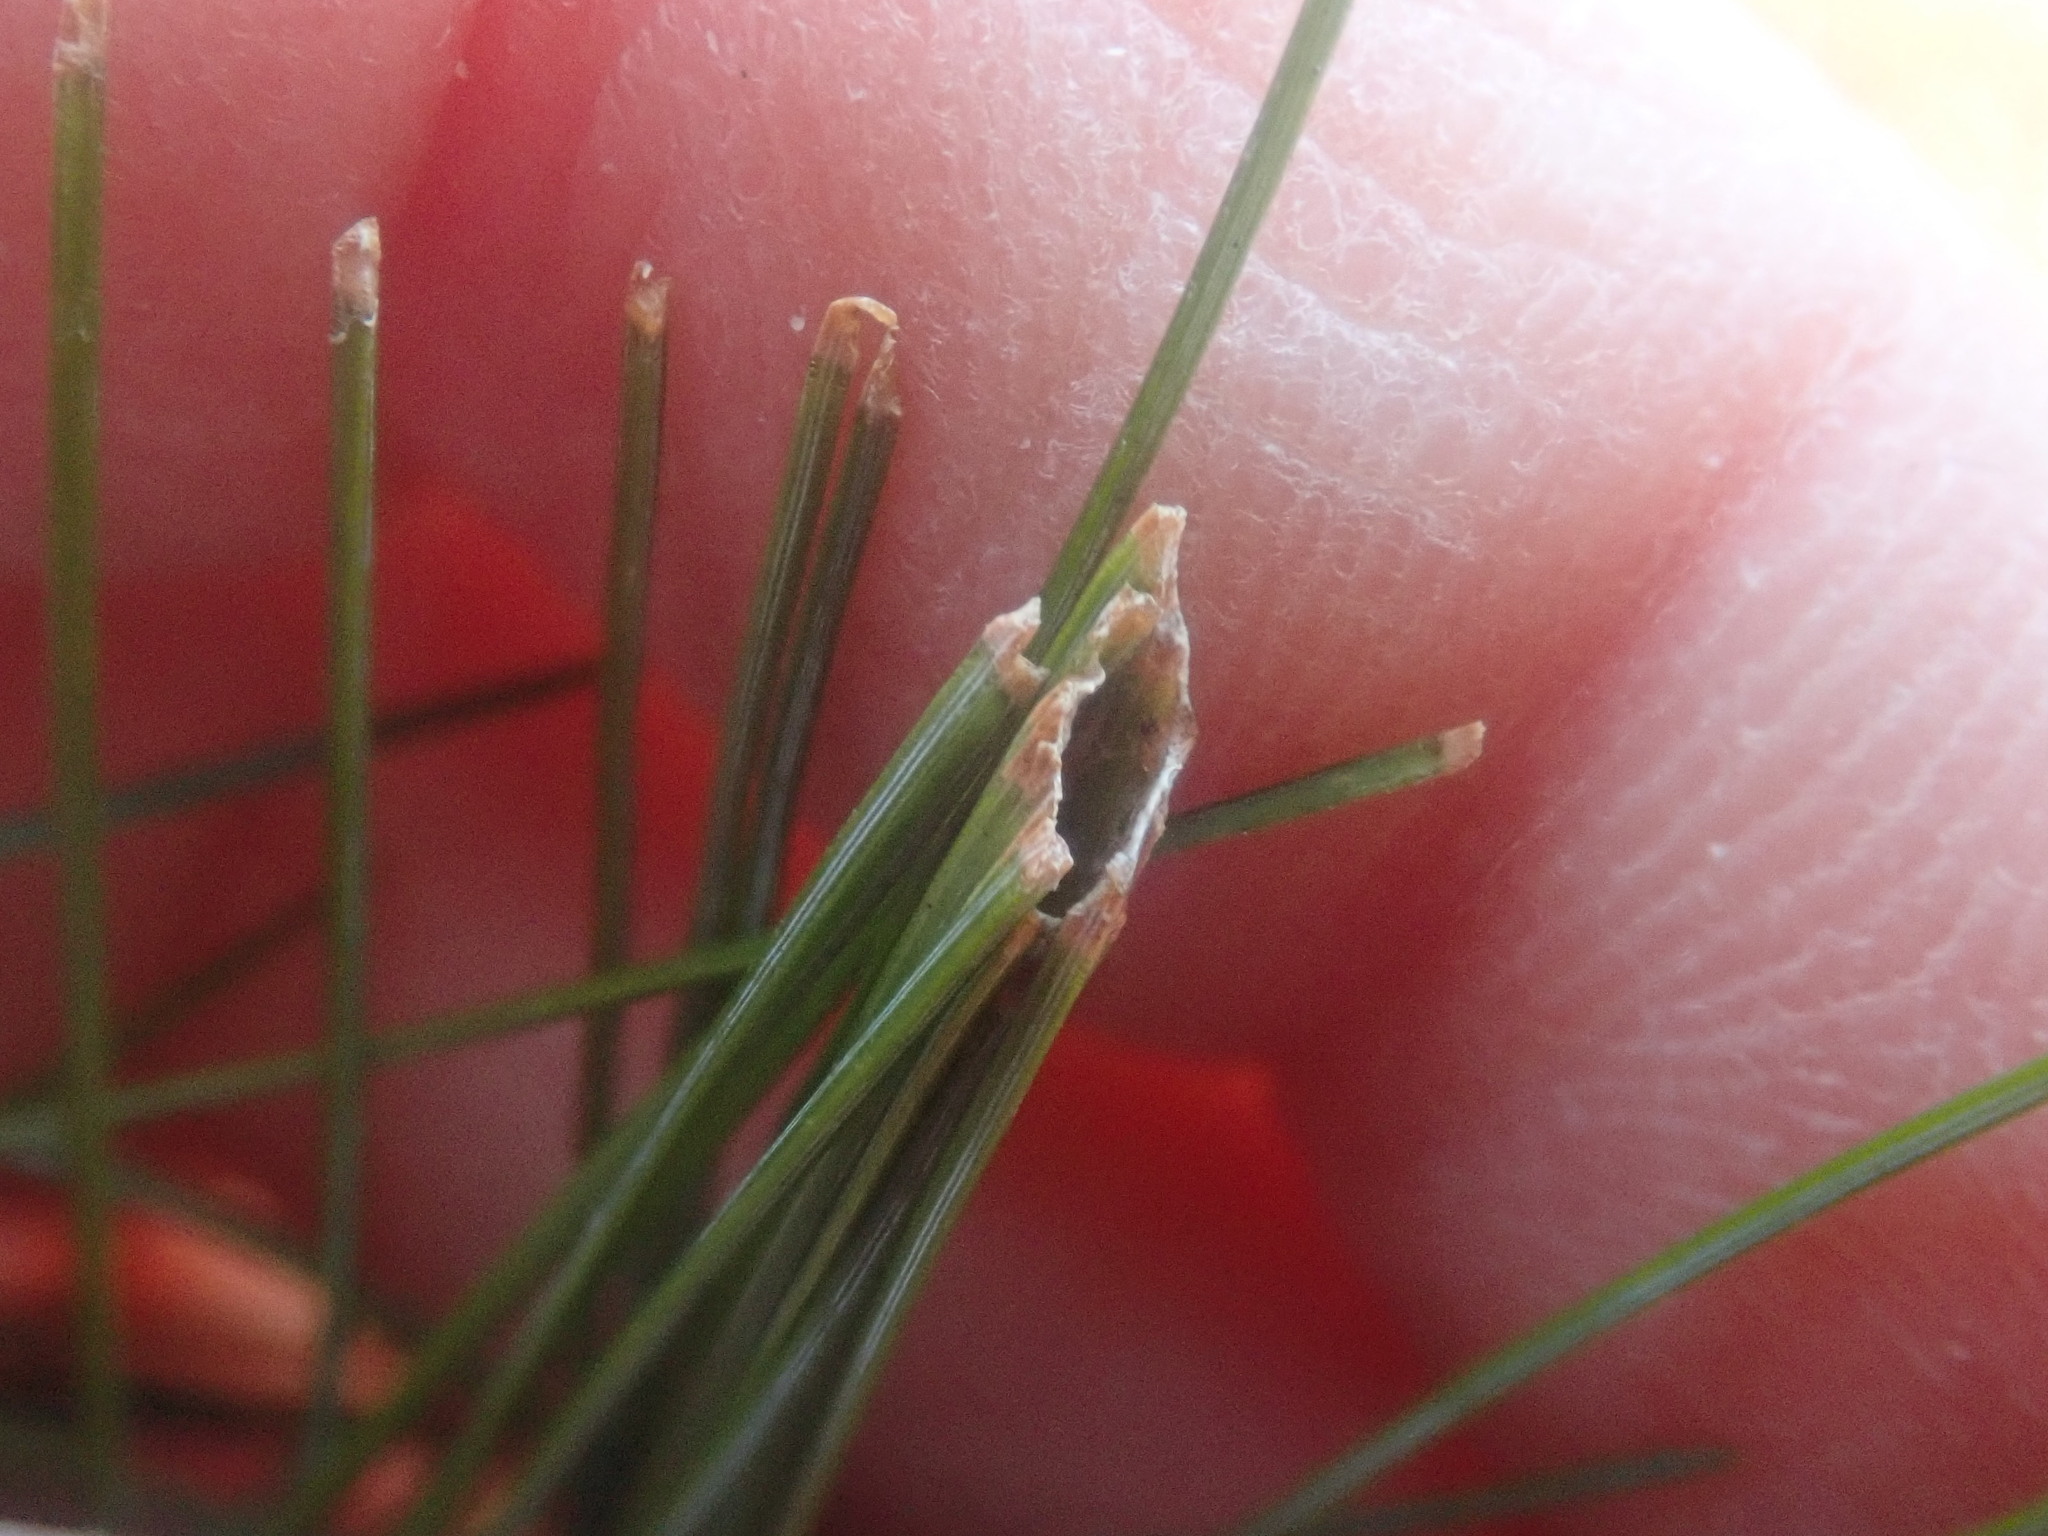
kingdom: Animalia
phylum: Arthropoda
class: Insecta
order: Lepidoptera
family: Tortricidae
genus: Argyrotaenia
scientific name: Argyrotaenia pinatubana
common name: Pine tube moth
